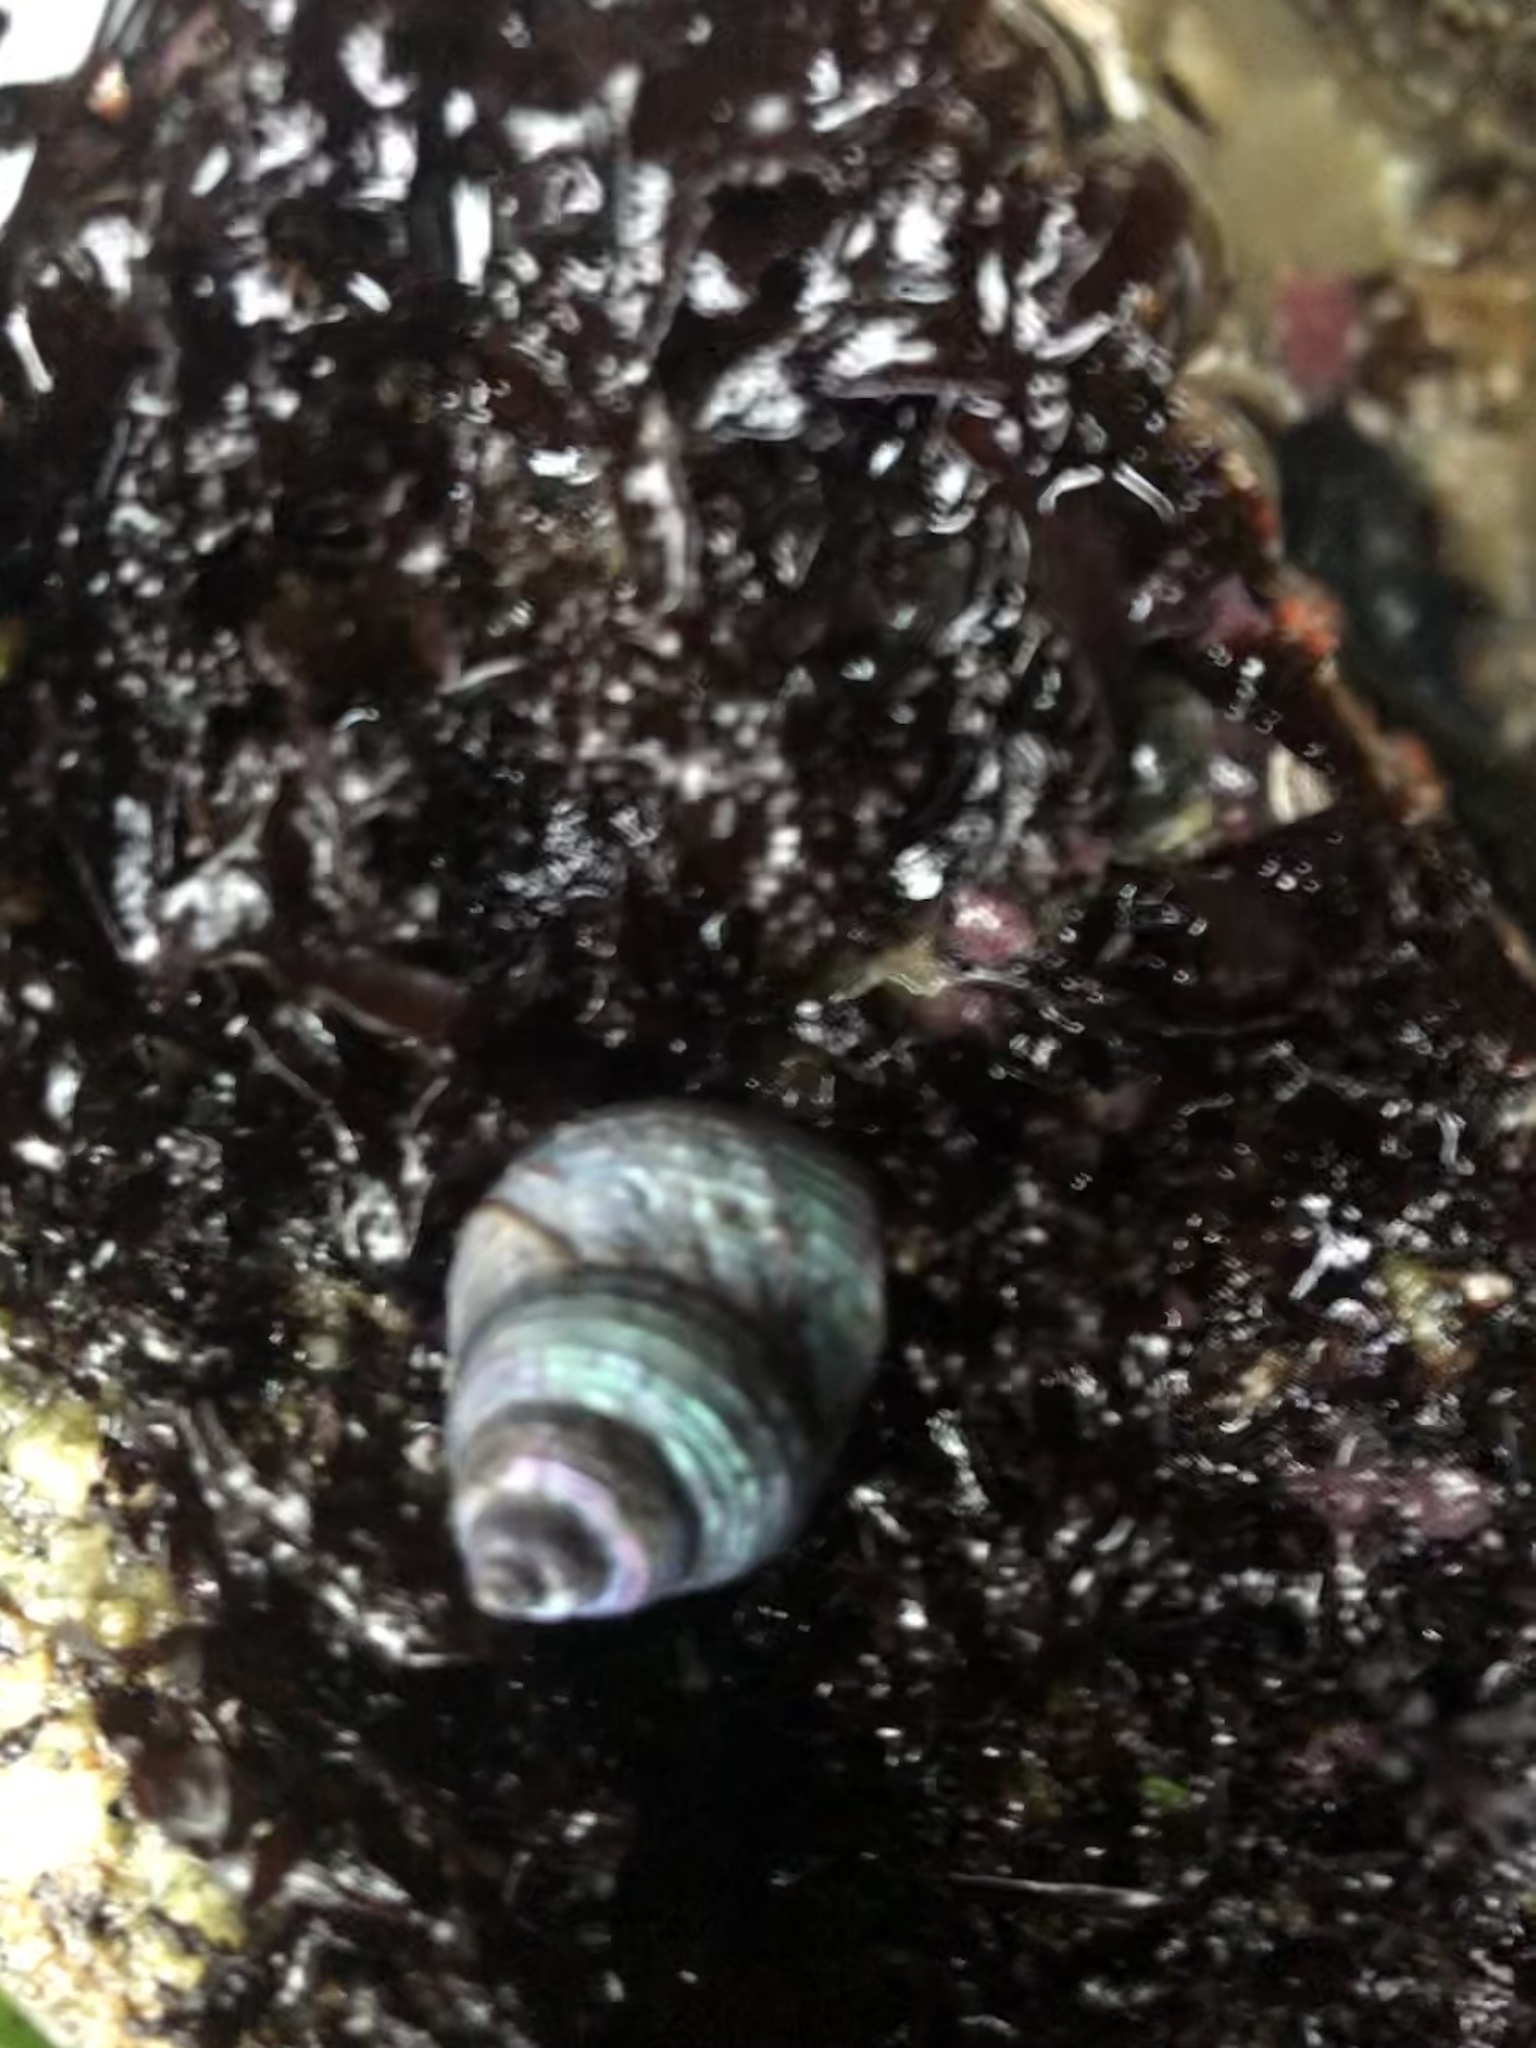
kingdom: Animalia
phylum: Mollusca
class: Gastropoda
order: Trochida
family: Calliostomatidae
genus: Calliostoma
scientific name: Calliostoma ligatum
